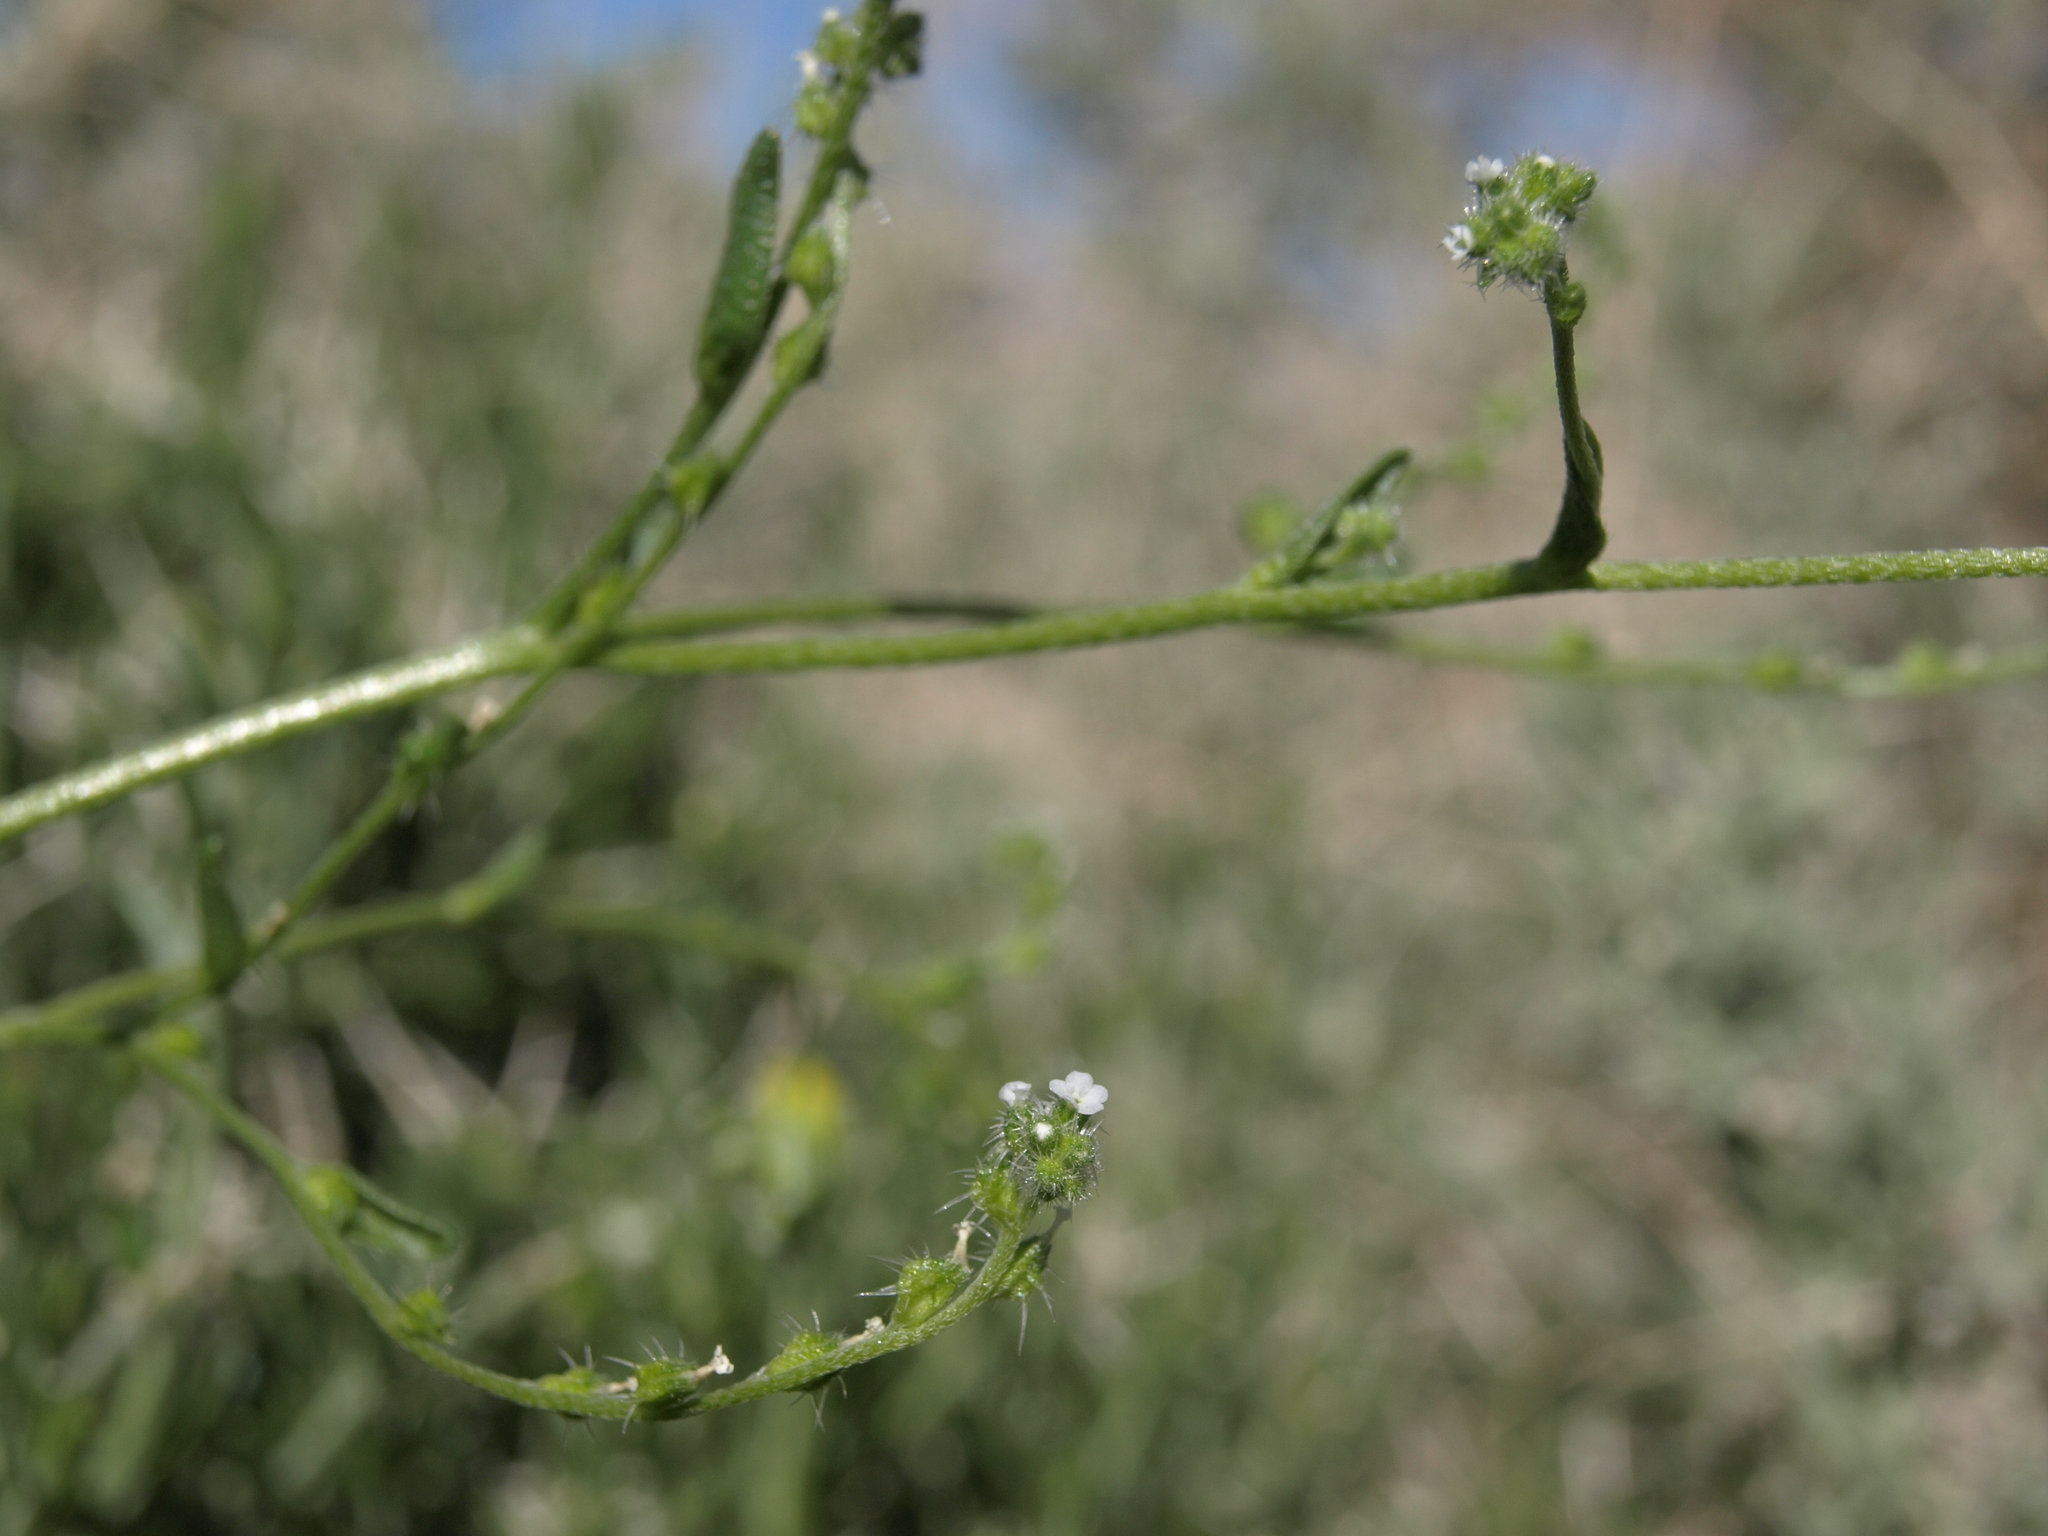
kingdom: Plantae
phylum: Tracheophyta
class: Magnoliopsida
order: Boraginales
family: Boraginaceae
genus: Cryptantha
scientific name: Cryptantha dumetorum
